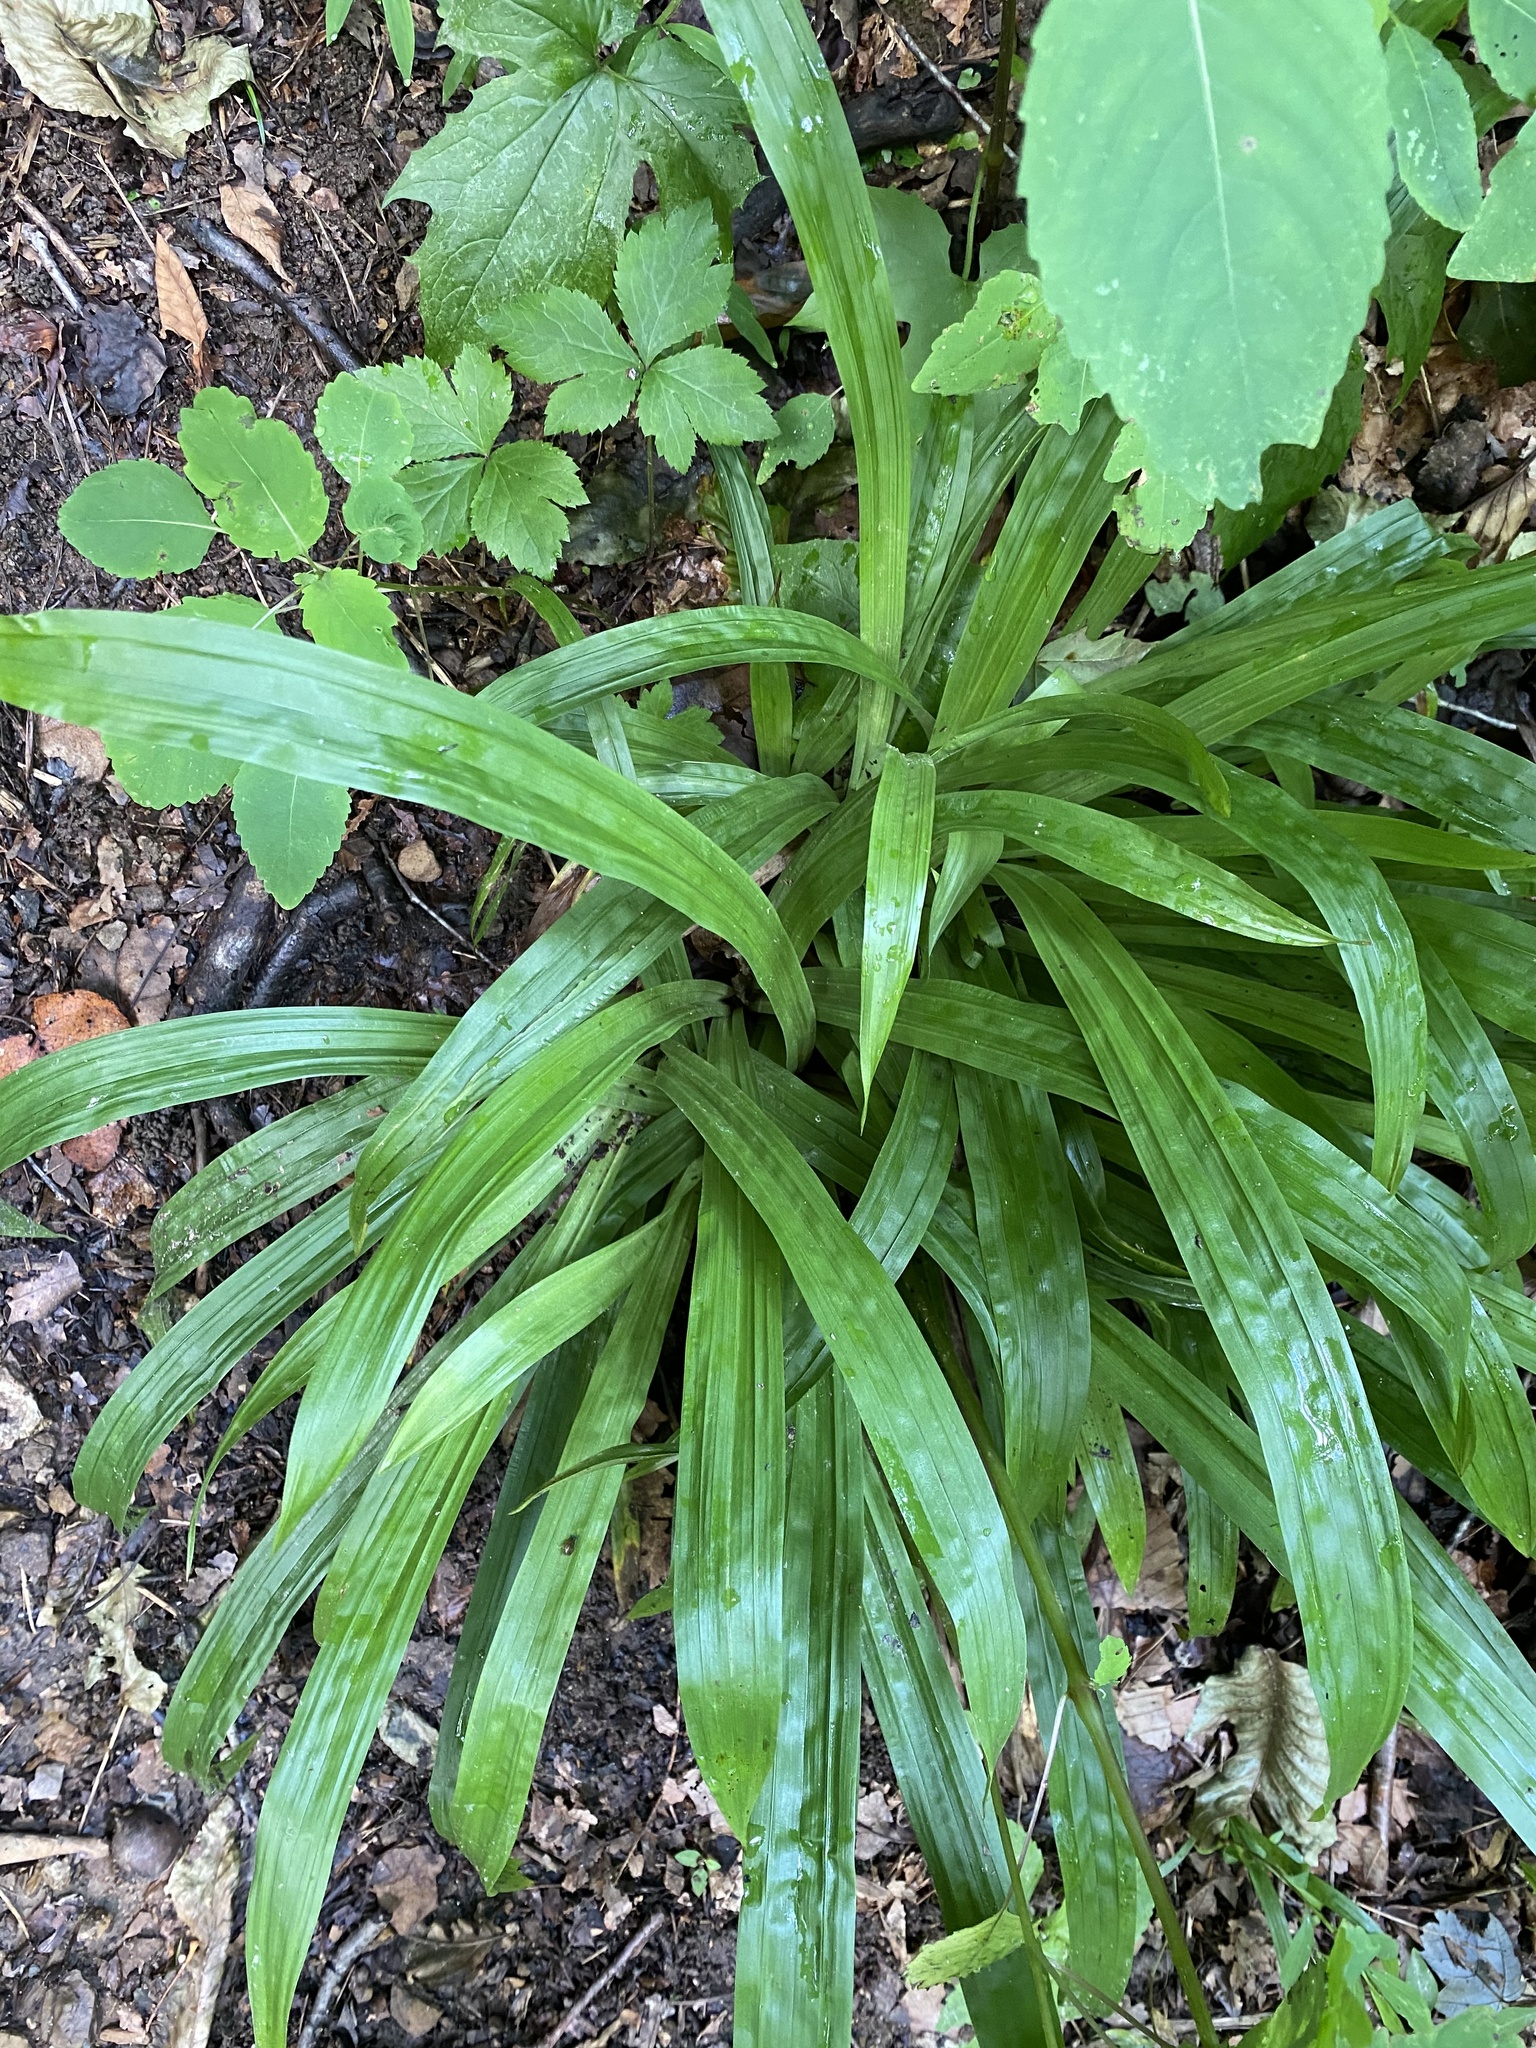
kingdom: Plantae
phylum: Tracheophyta
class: Liliopsida
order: Poales
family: Cyperaceae
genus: Carex
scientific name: Carex plantaginea
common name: Plantain-leaved sedge
